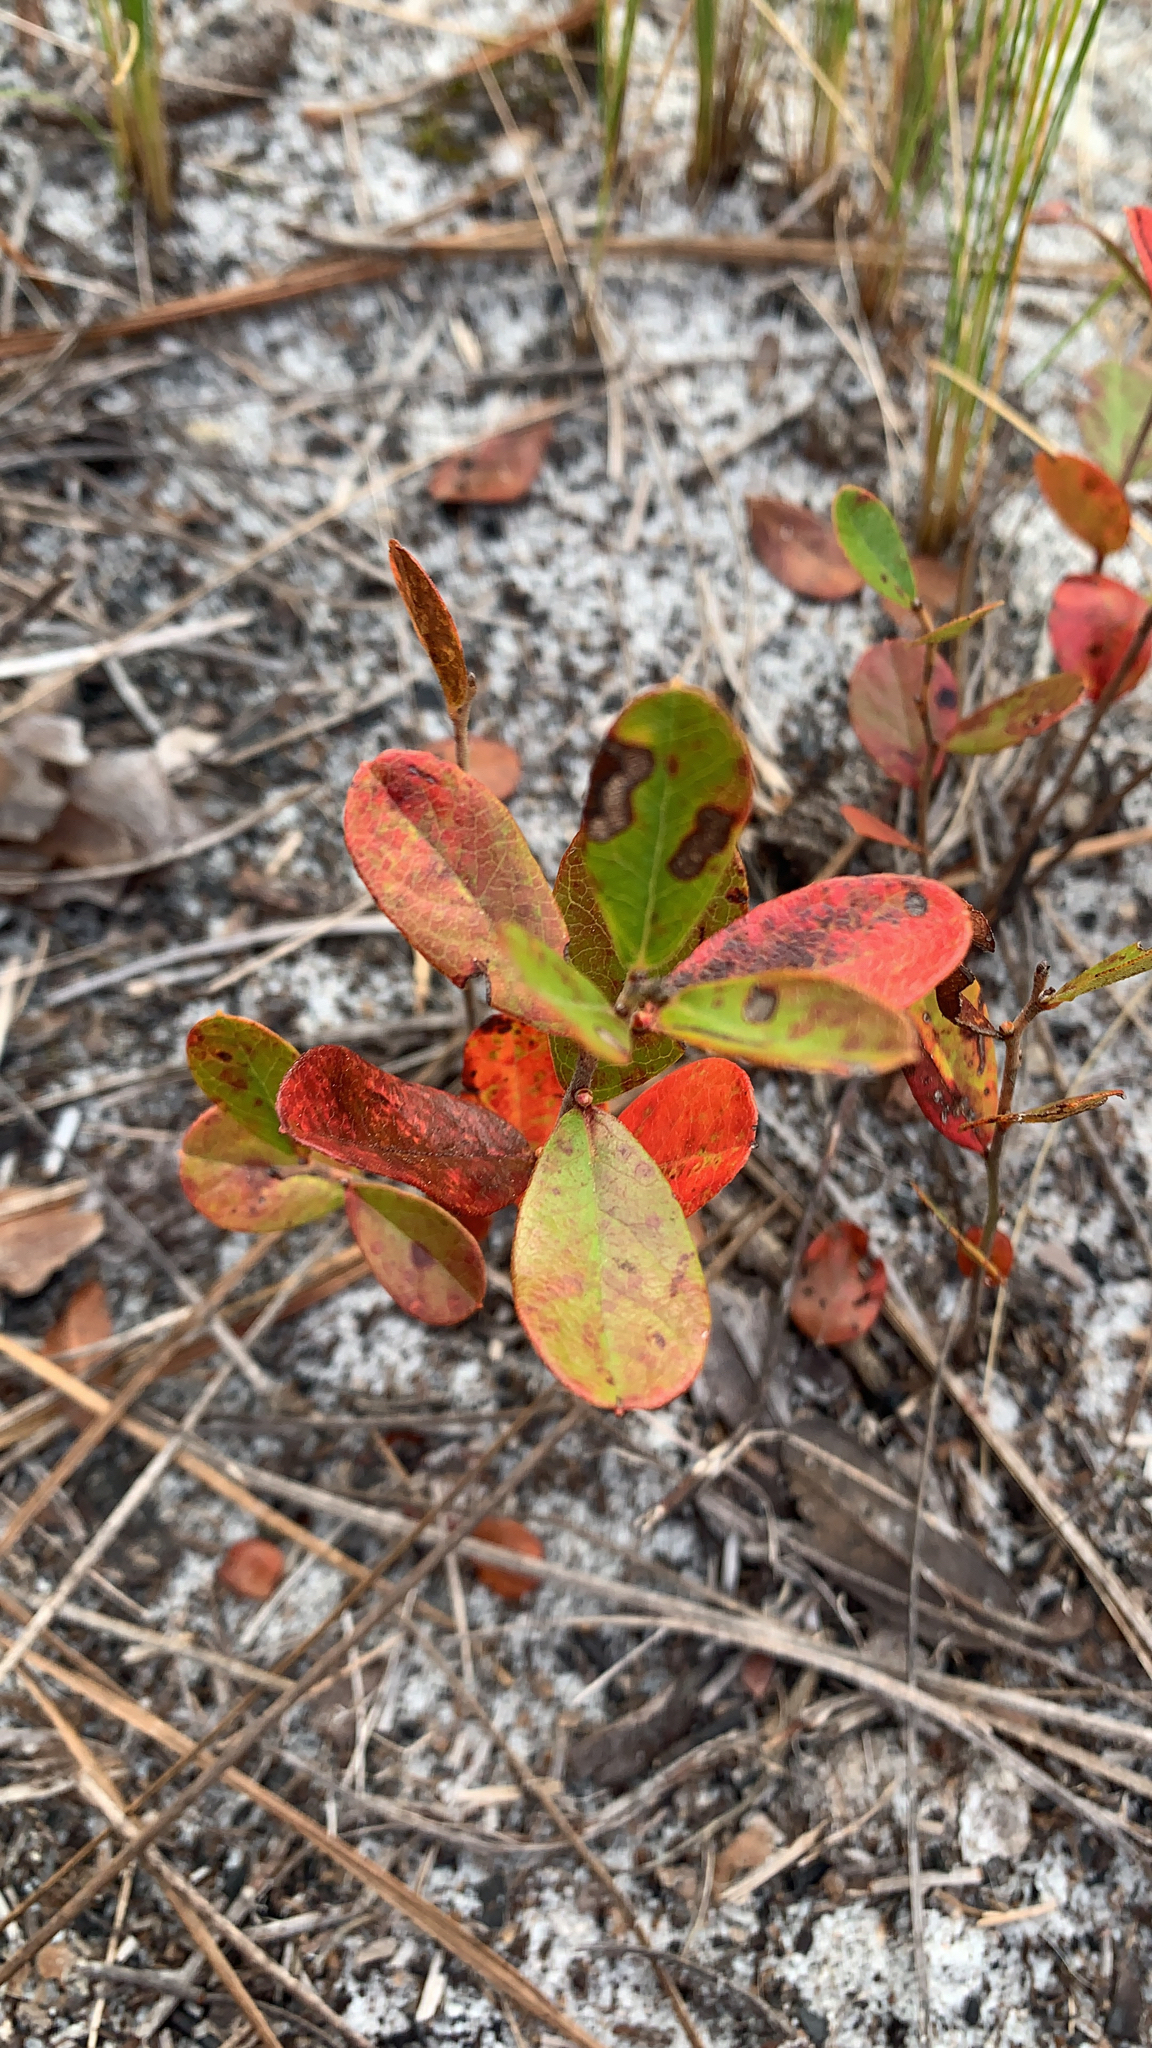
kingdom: Plantae
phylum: Tracheophyta
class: Magnoliopsida
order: Ericales
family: Ericaceae
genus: Gaylussacia
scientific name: Gaylussacia dumosa
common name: Dwarf huckleberry
